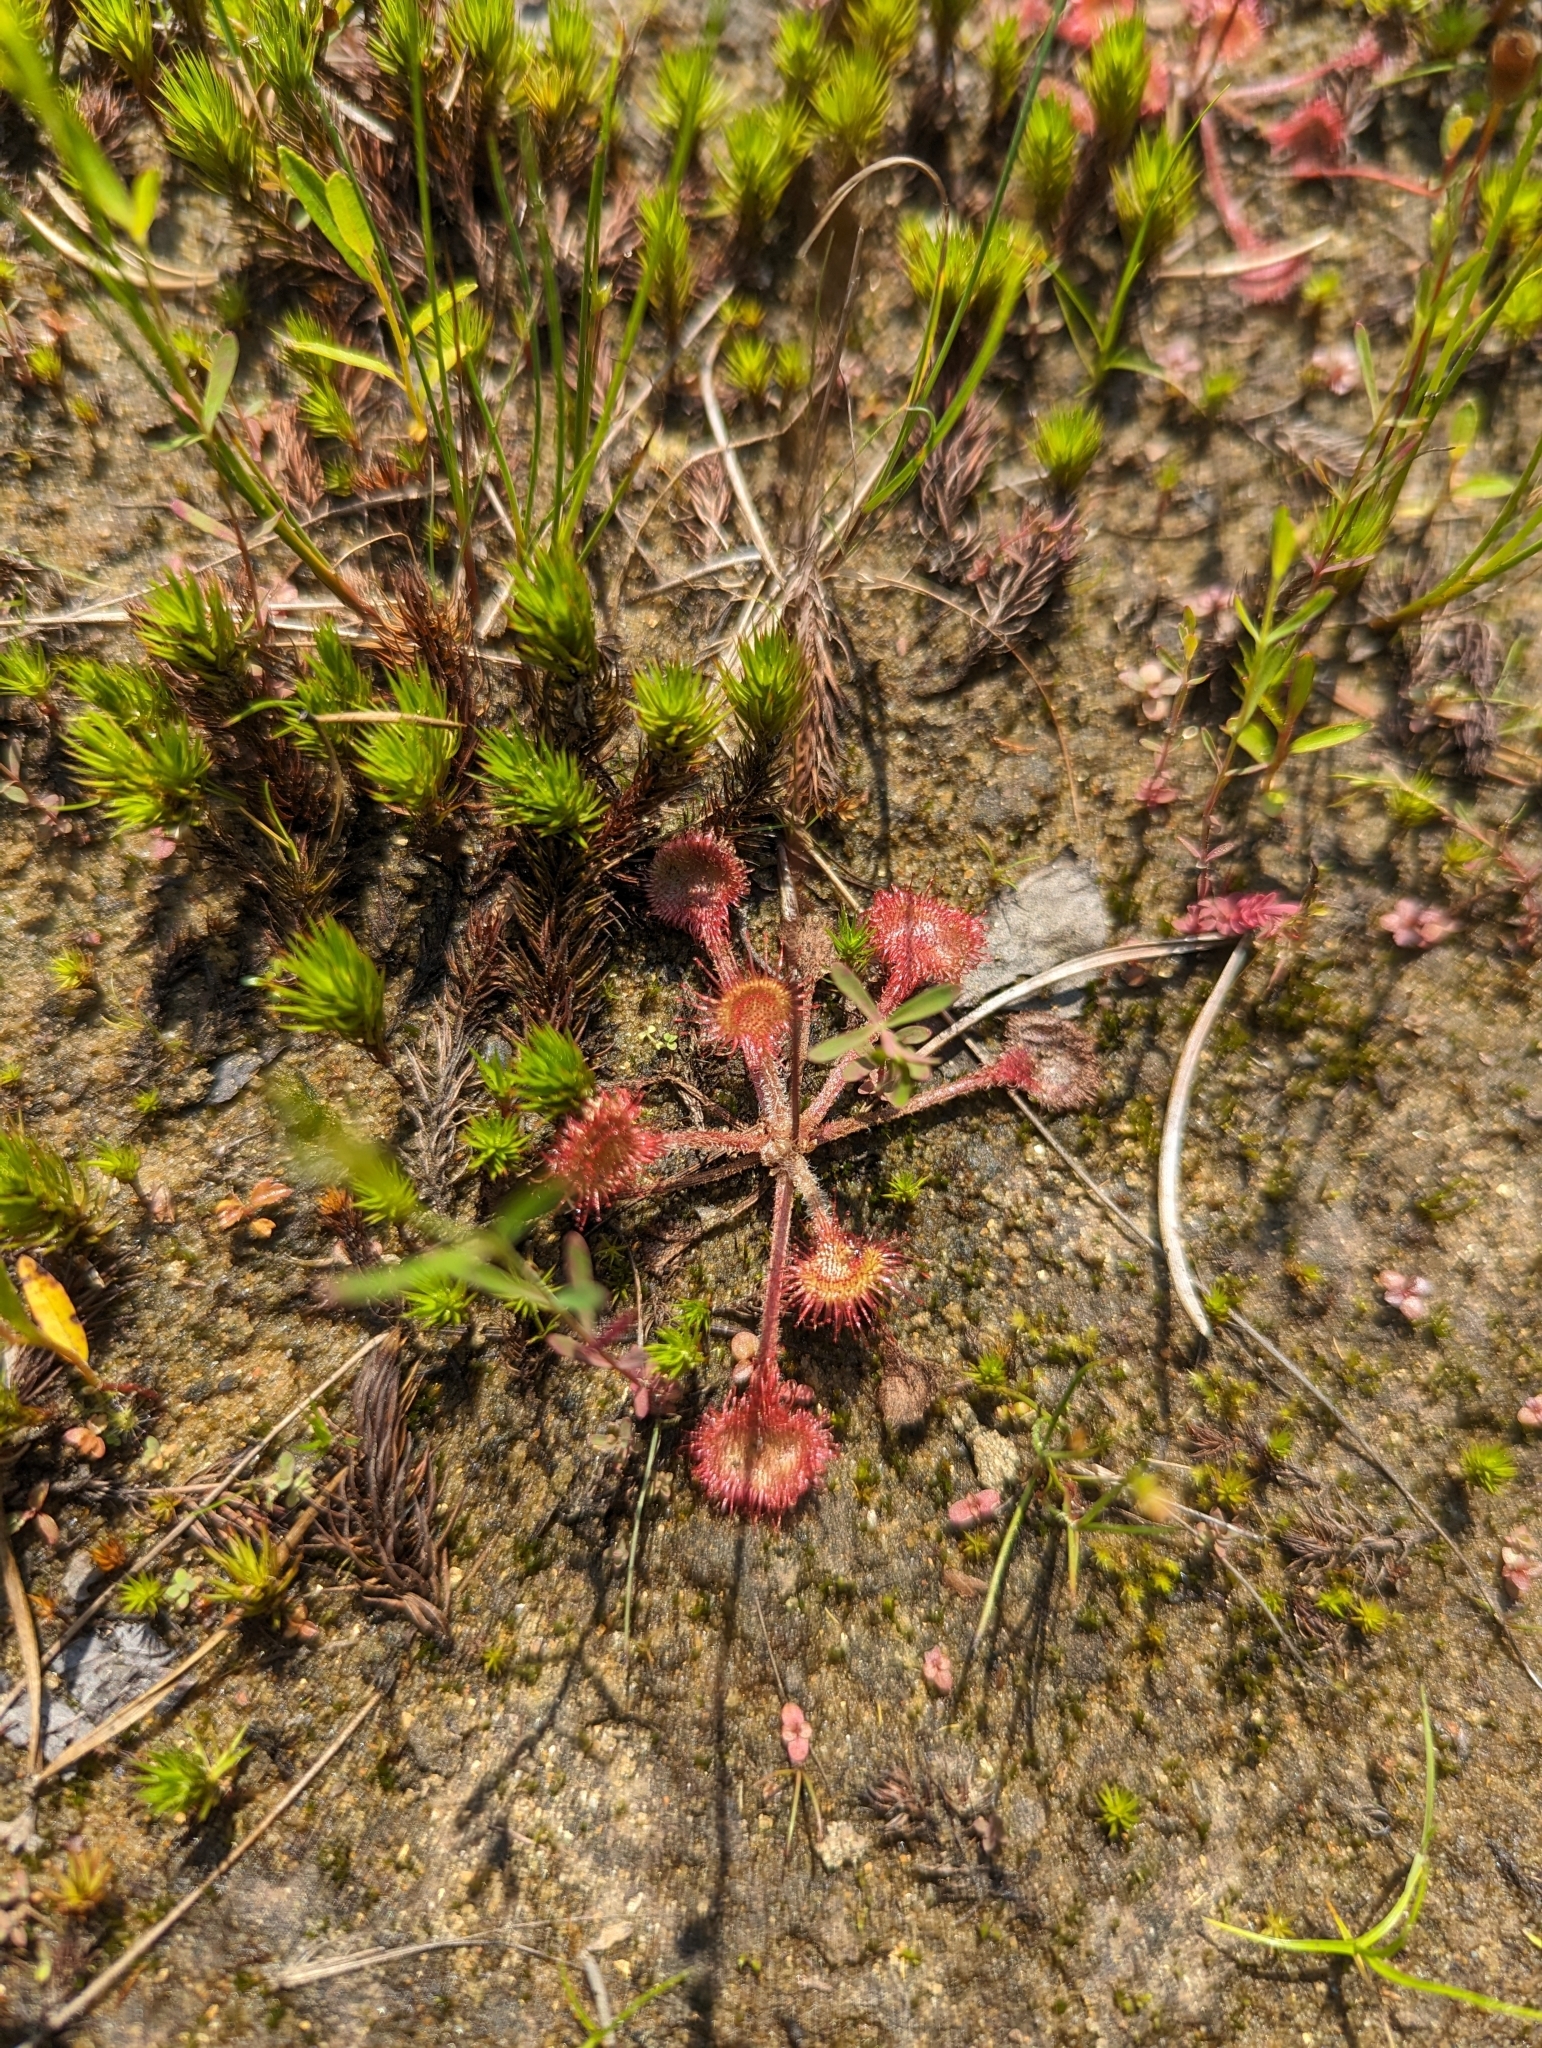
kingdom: Plantae
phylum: Tracheophyta
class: Magnoliopsida
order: Caryophyllales
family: Droseraceae
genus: Drosera
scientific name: Drosera rotundifolia
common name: Round-leaved sundew
